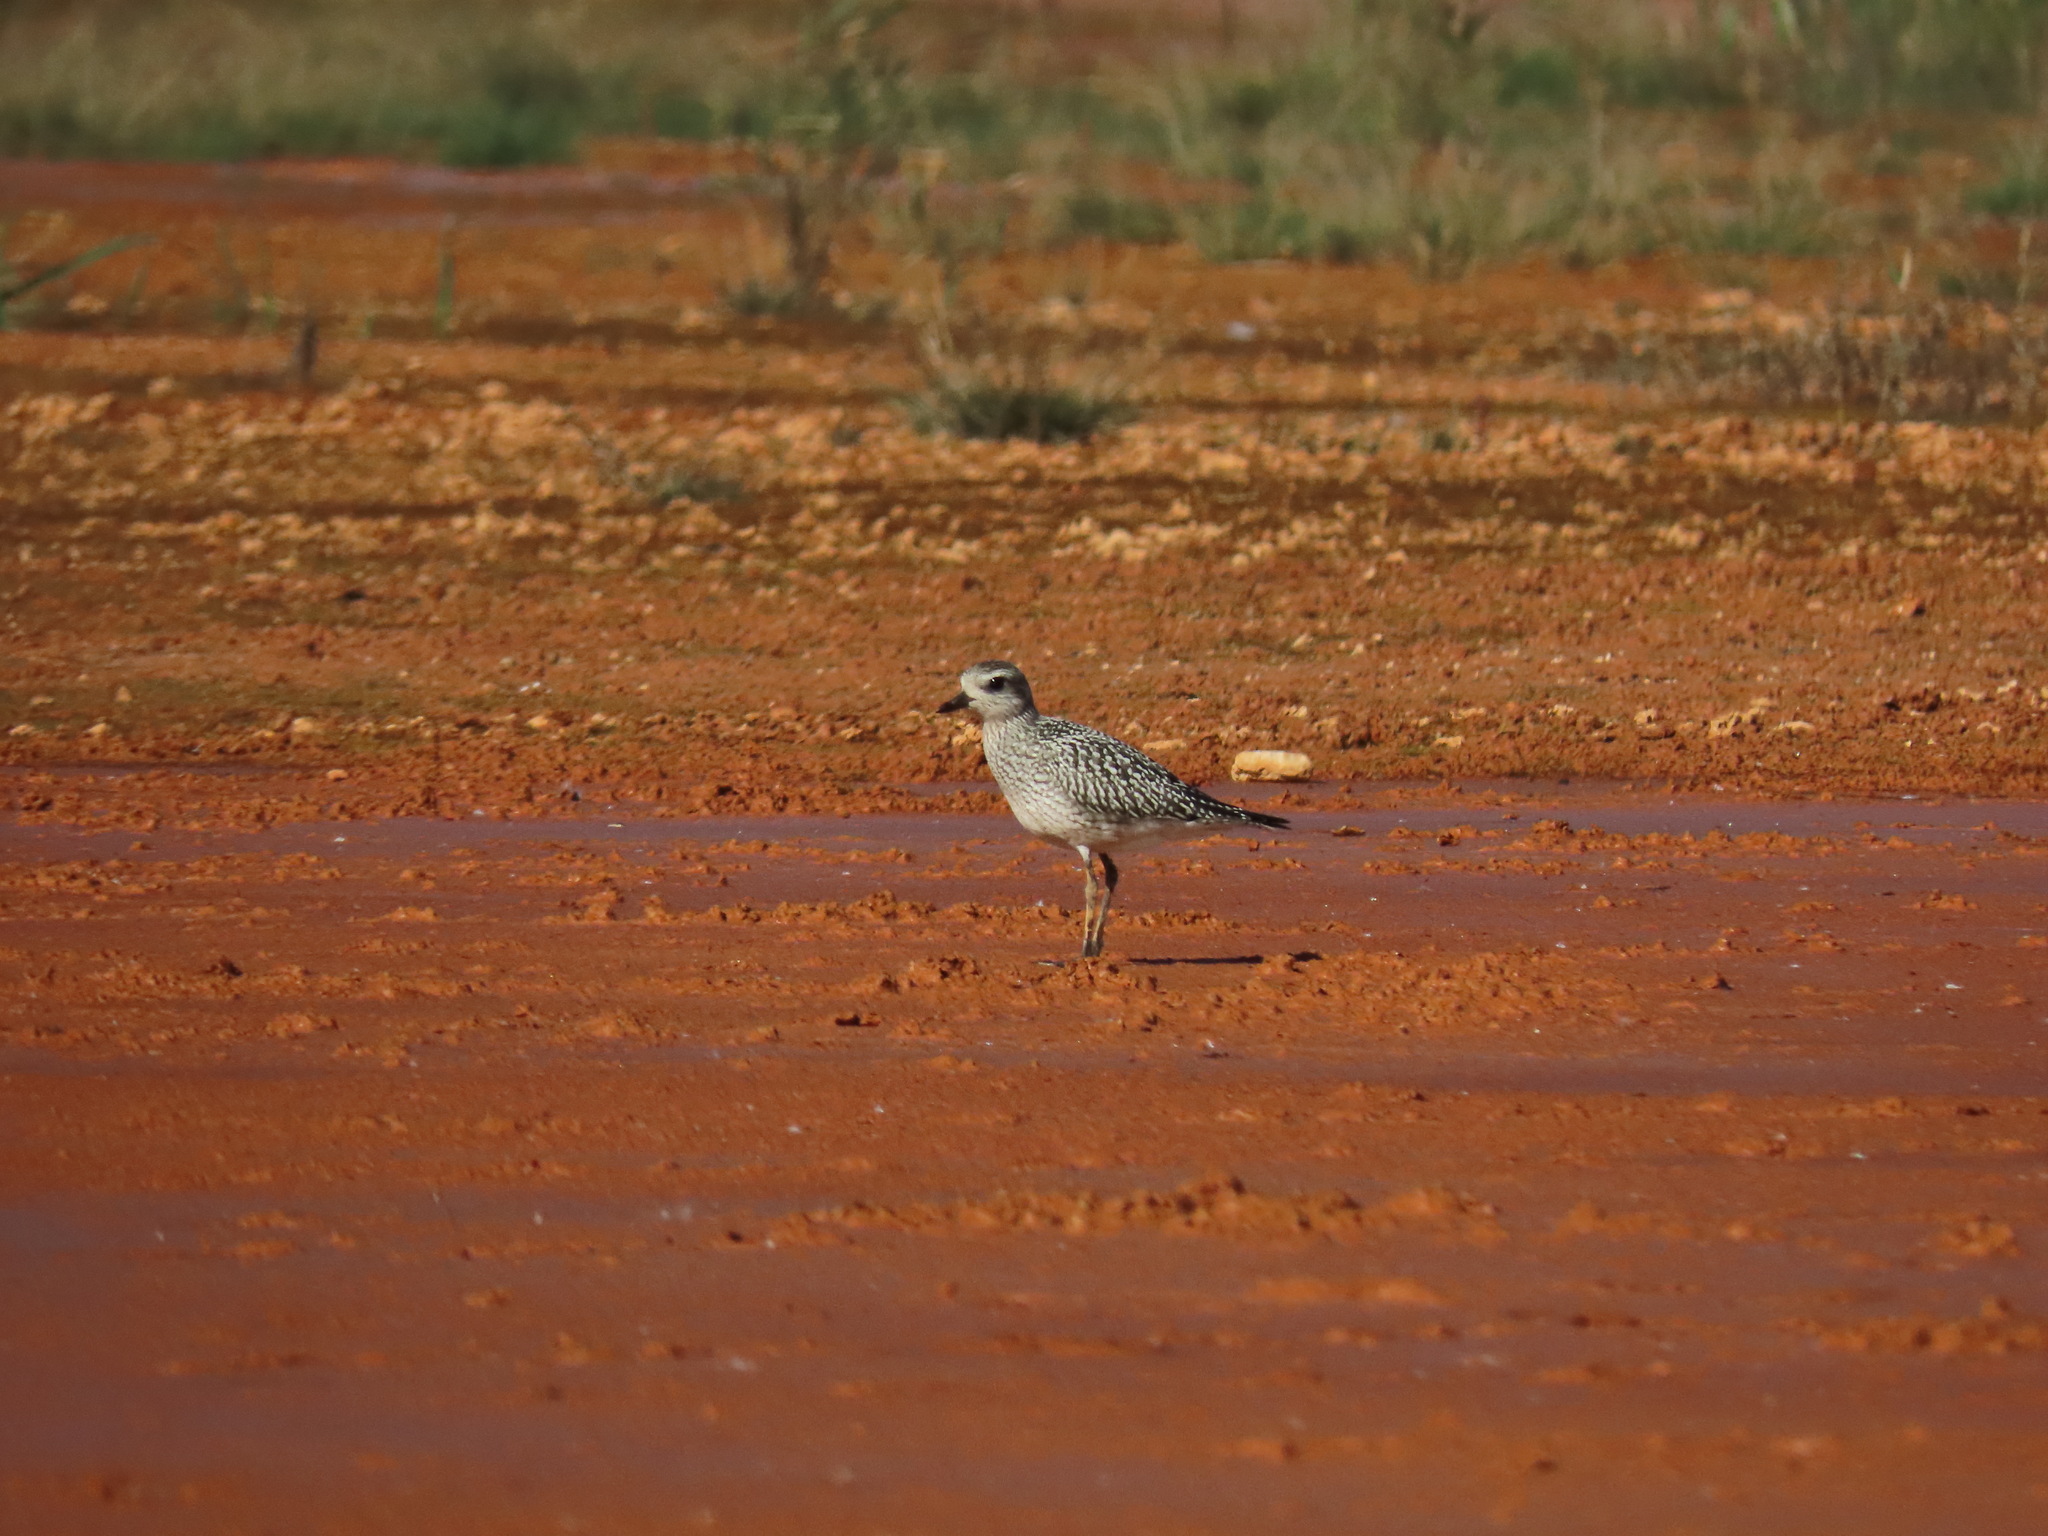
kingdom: Animalia
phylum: Chordata
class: Aves
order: Charadriiformes
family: Charadriidae
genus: Pluvialis
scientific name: Pluvialis squatarola
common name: Grey plover
